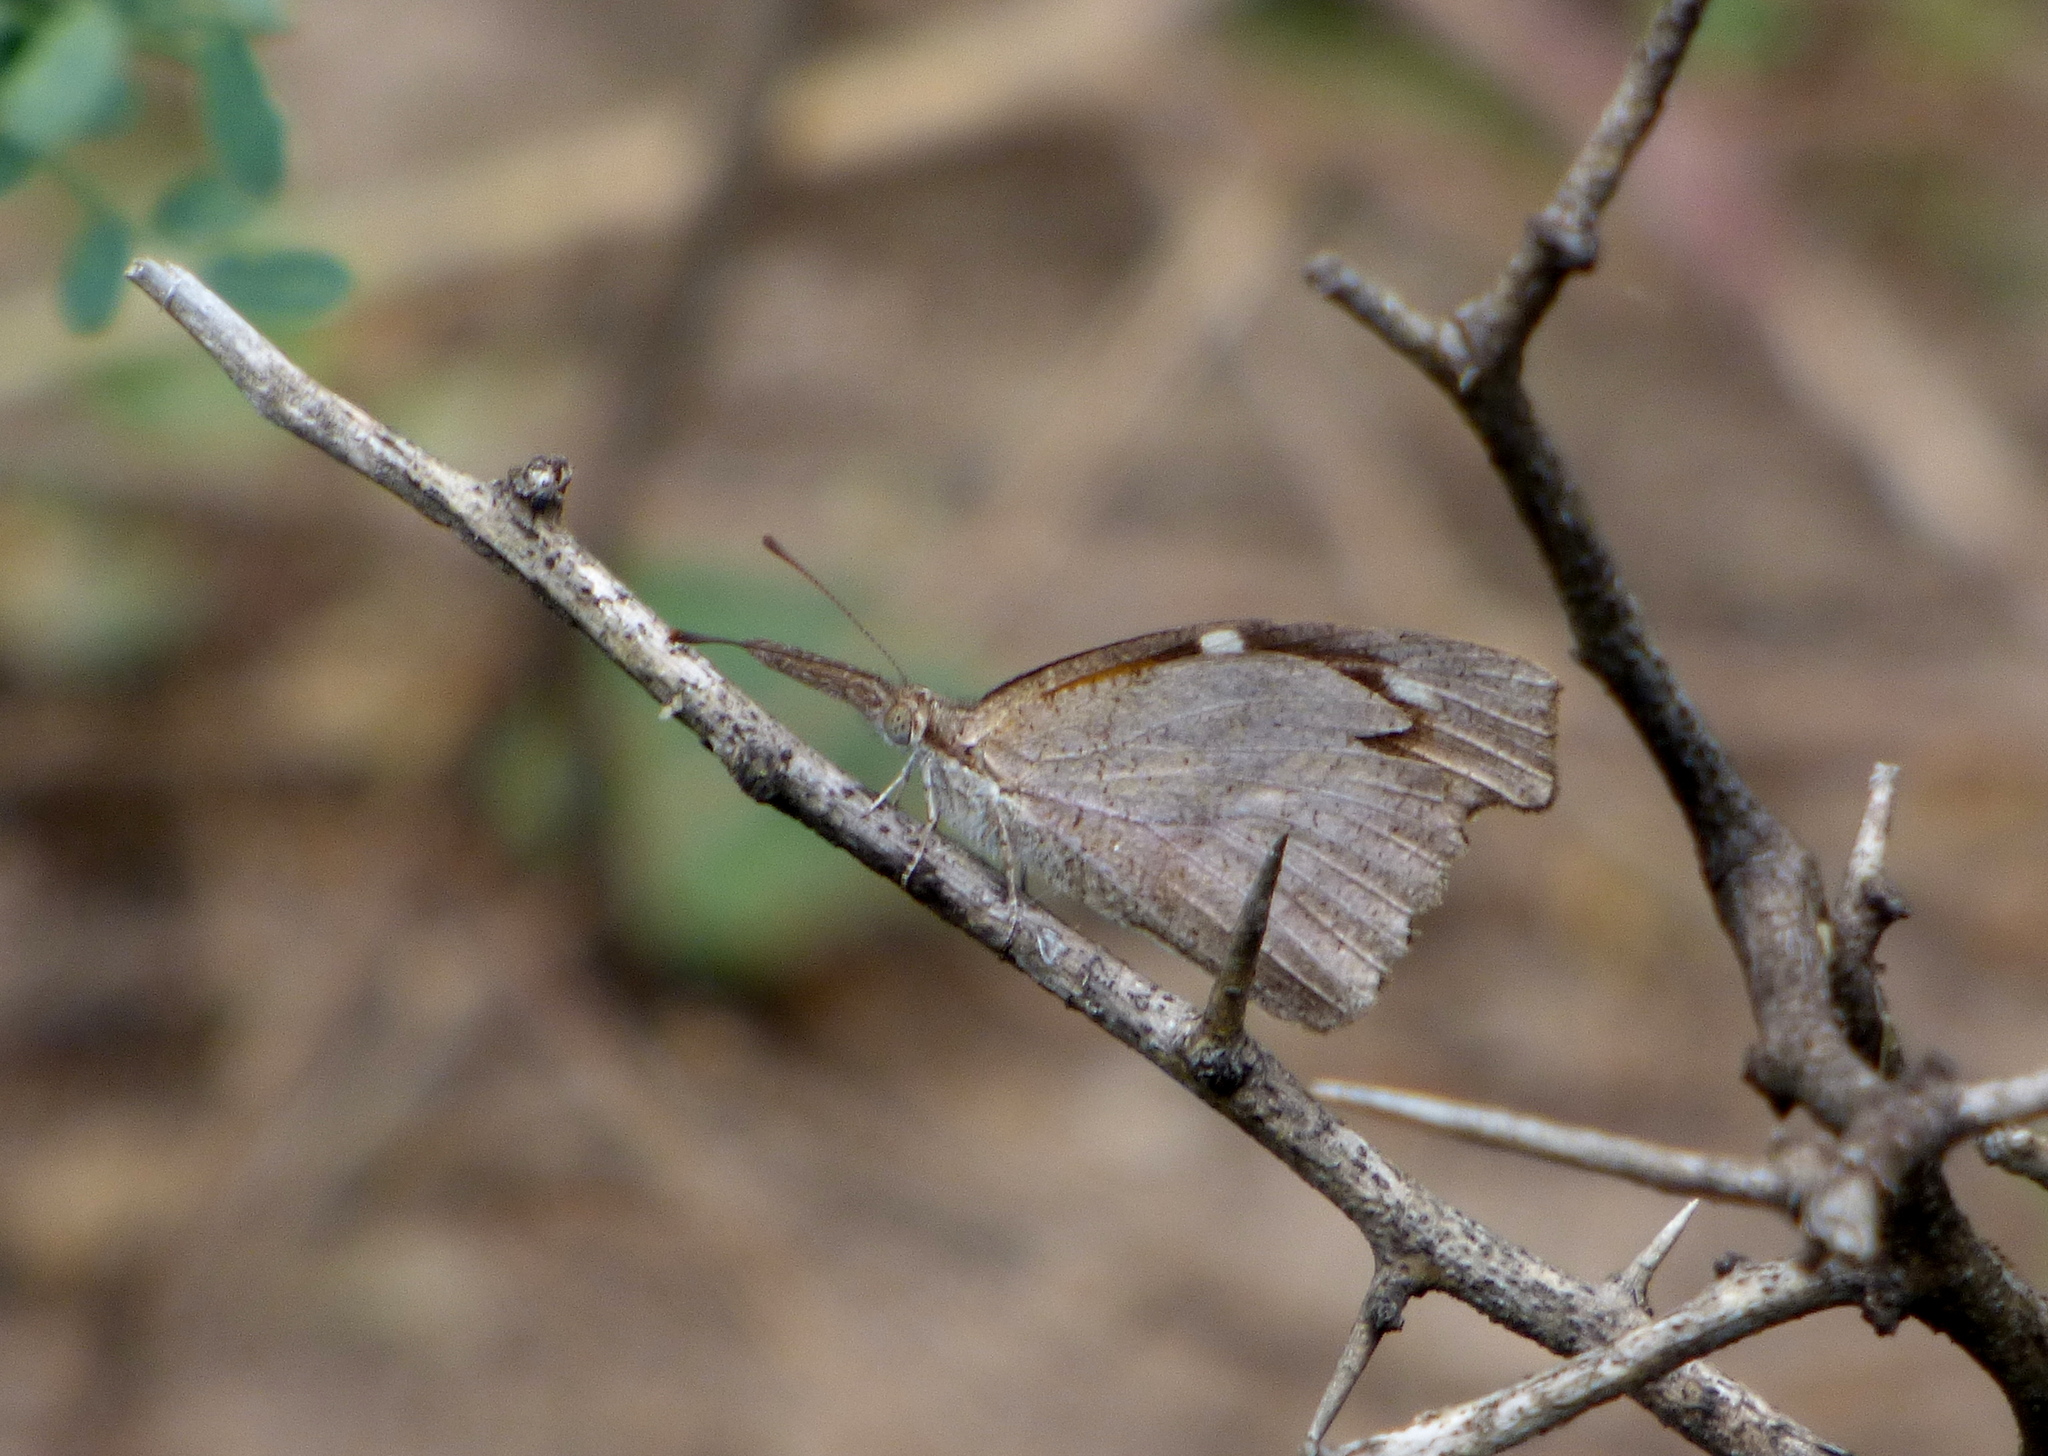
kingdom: Animalia
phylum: Arthropoda
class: Insecta
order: Lepidoptera
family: Nymphalidae
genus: Libytheana
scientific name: Libytheana carinenta
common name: American snout
